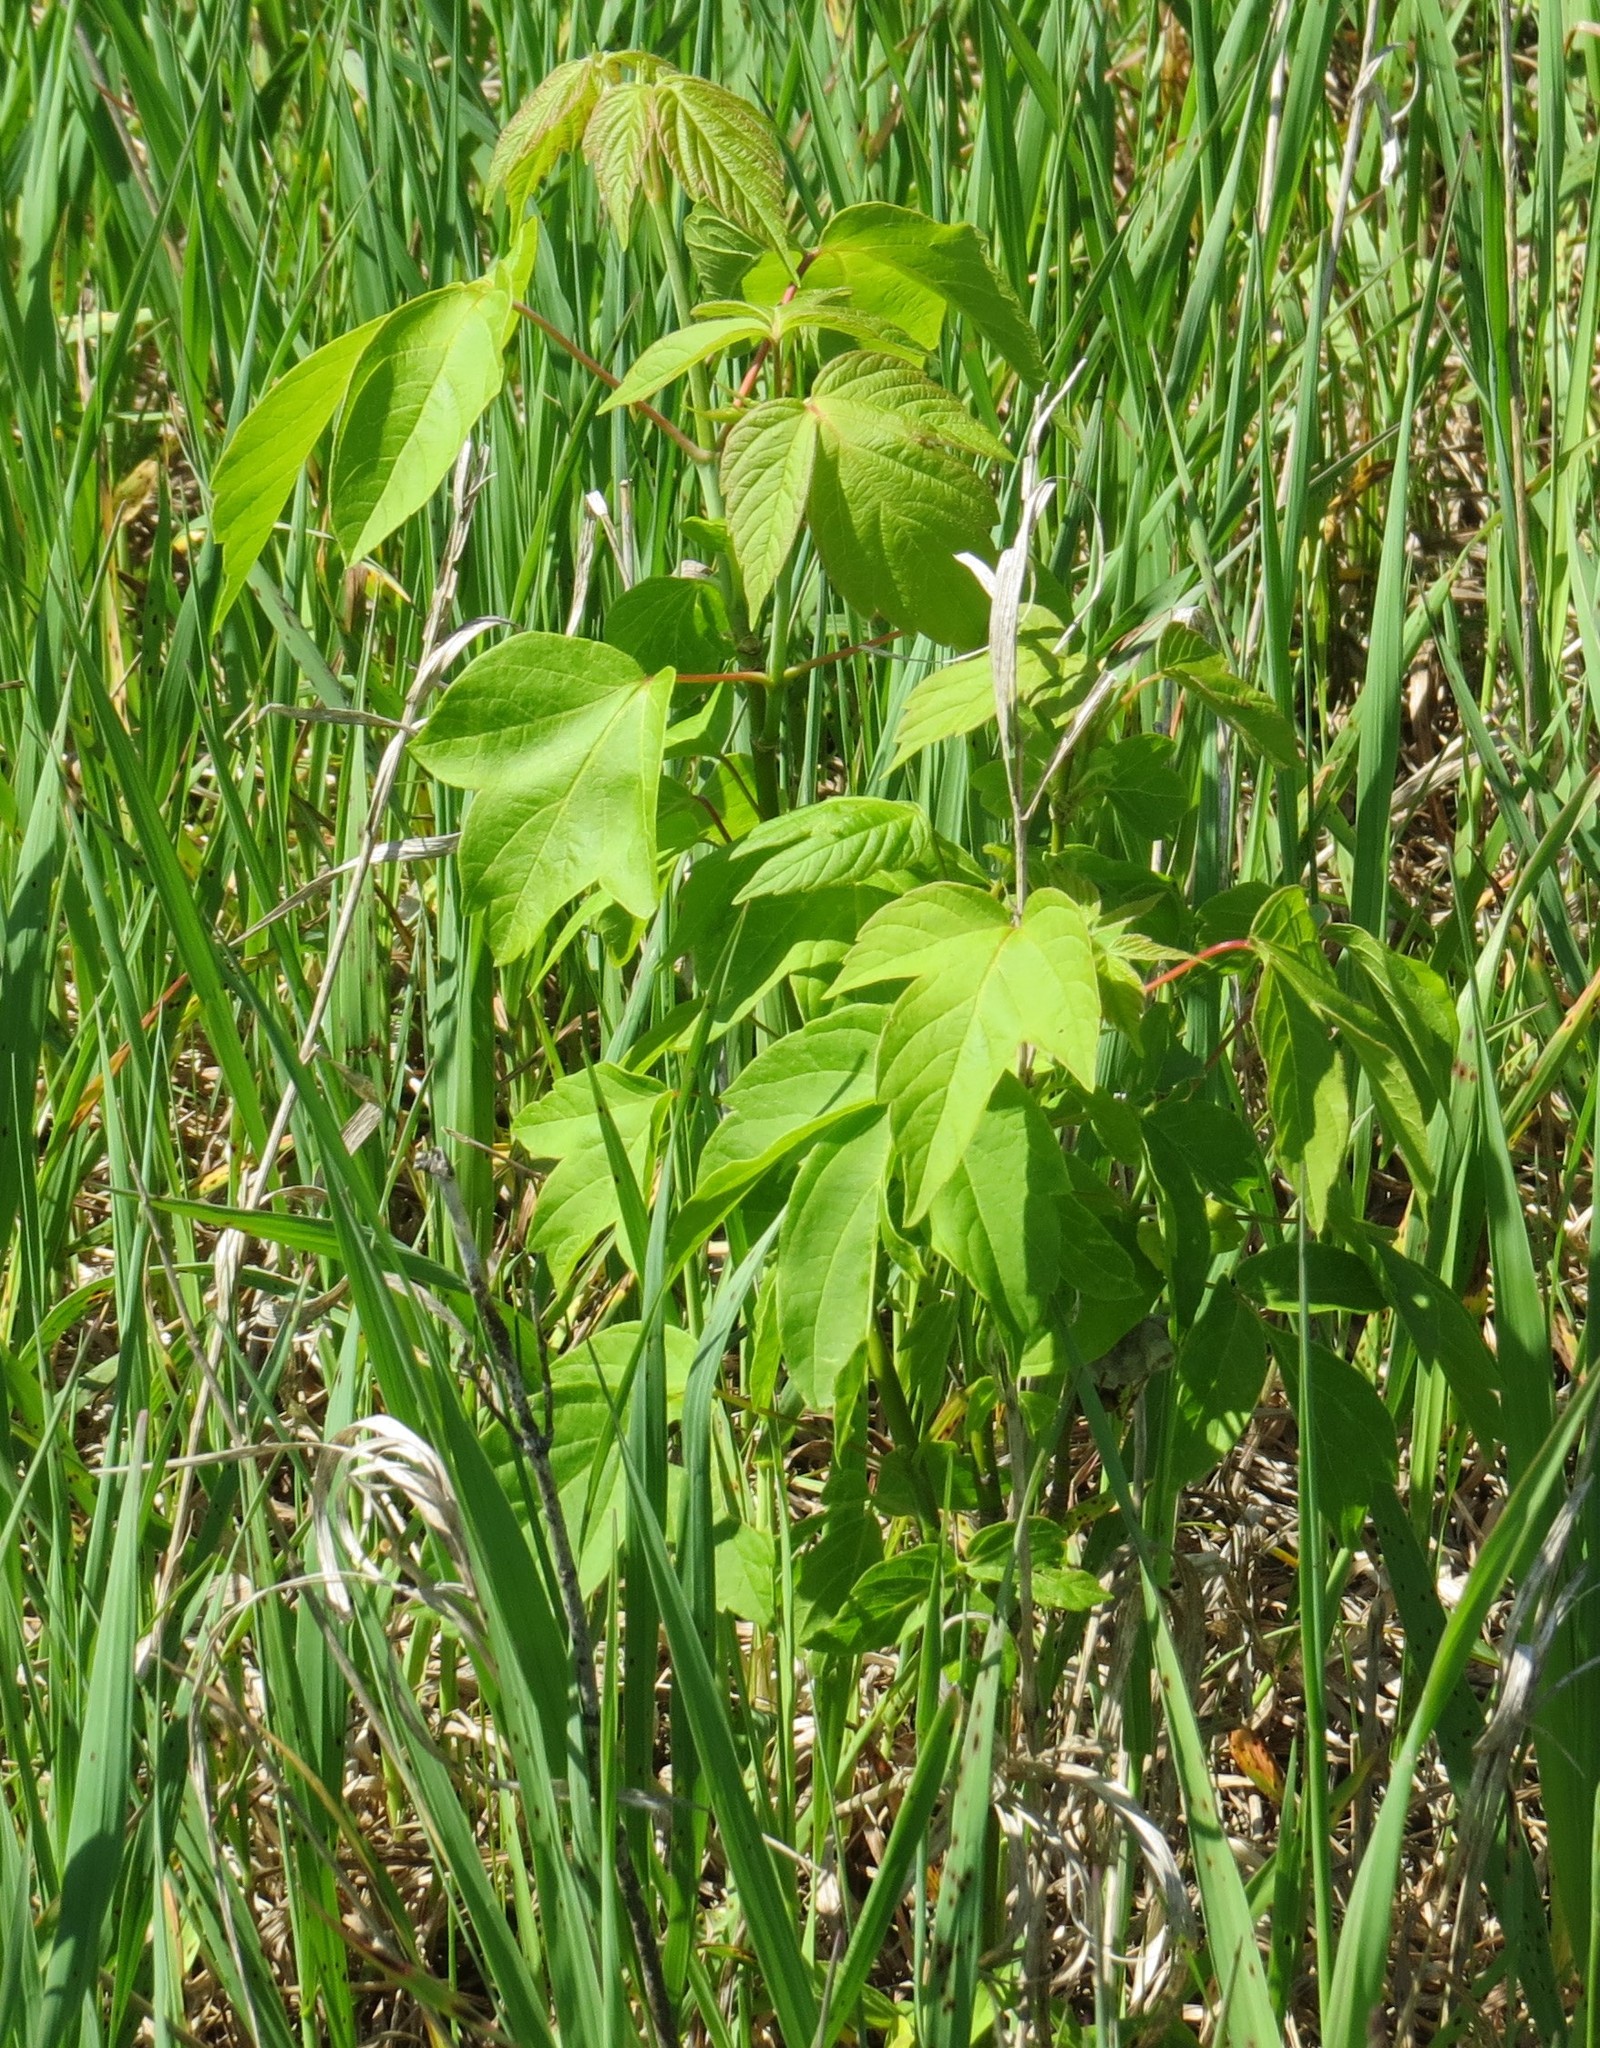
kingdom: Plantae
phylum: Tracheophyta
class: Magnoliopsida
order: Sapindales
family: Sapindaceae
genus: Acer
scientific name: Acer negundo
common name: Ashleaf maple
